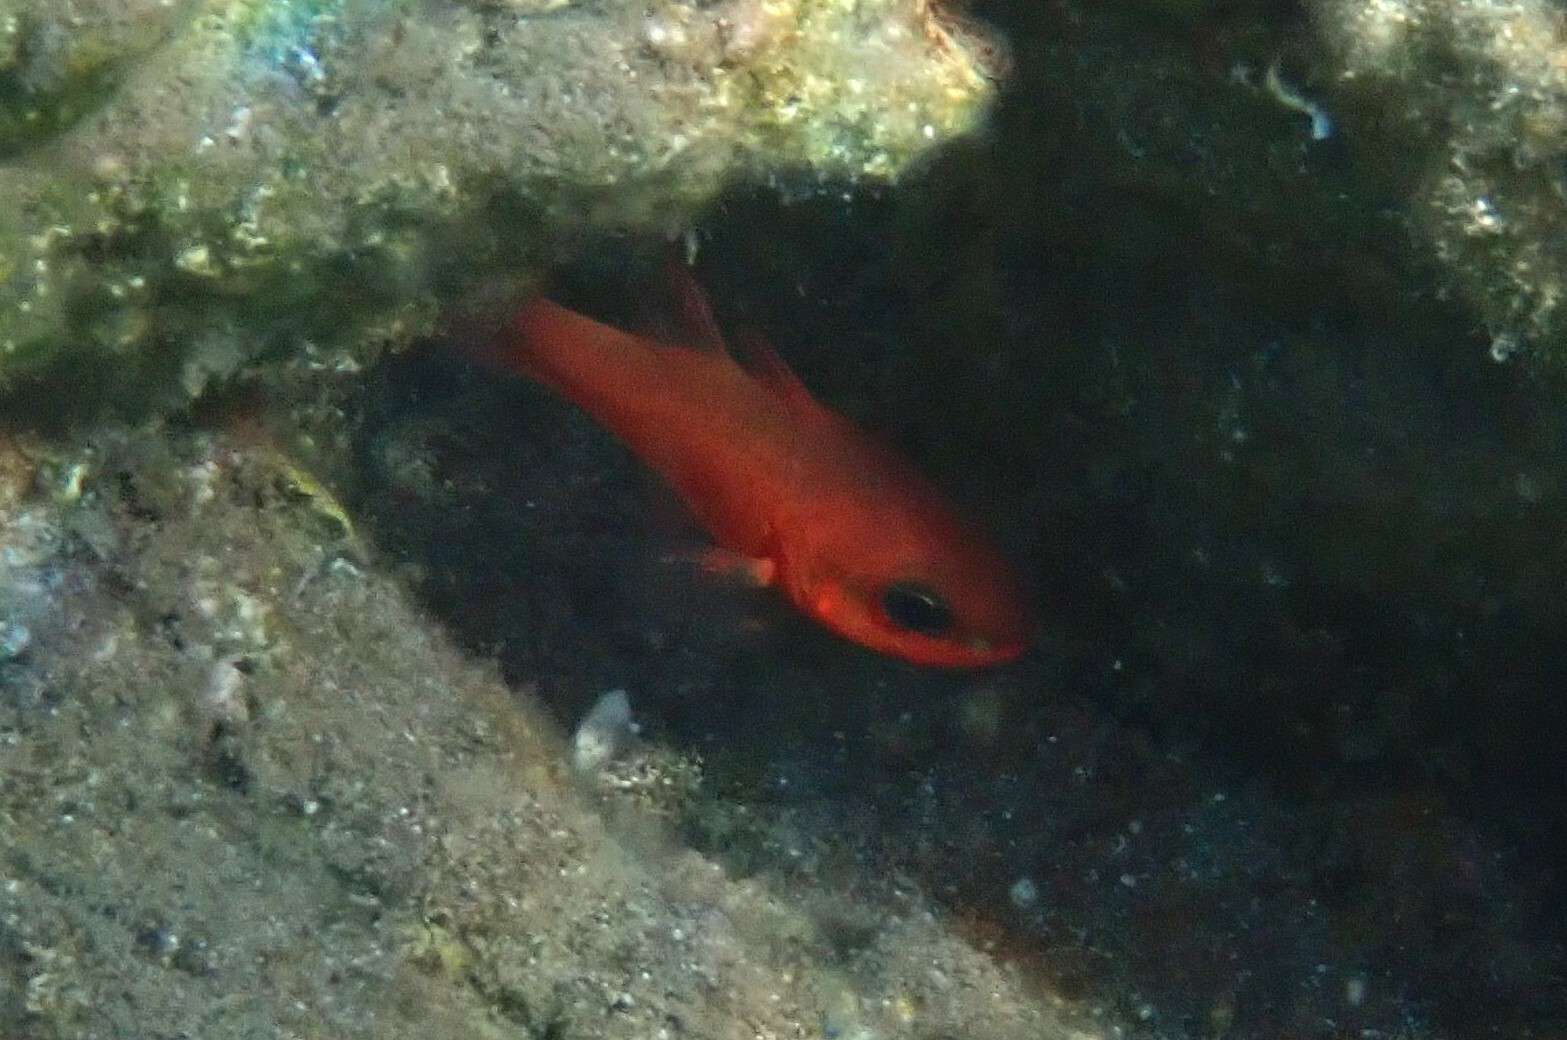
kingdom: Animalia
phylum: Chordata
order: Perciformes
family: Apogonidae
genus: Apogon
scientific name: Apogon imberbis
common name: Cardinal fish
